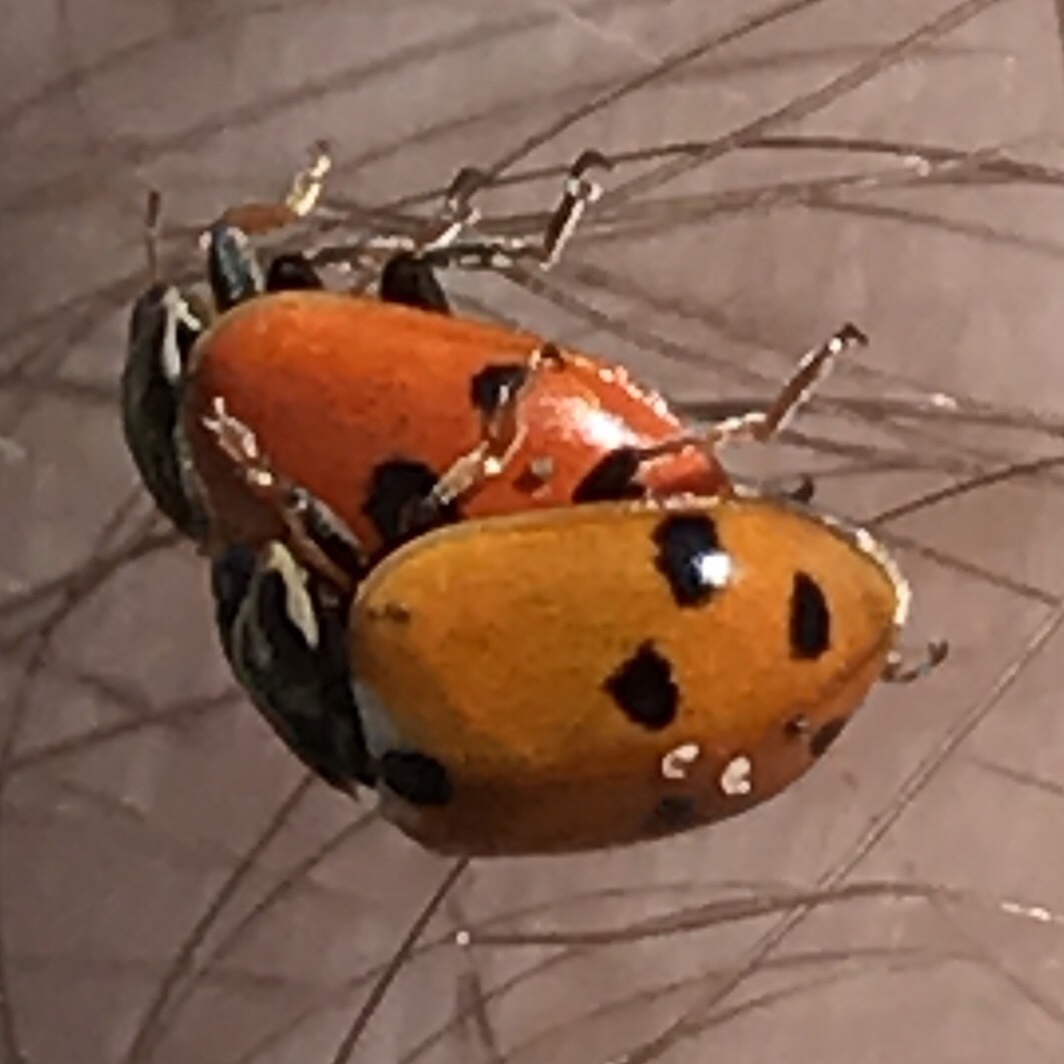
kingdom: Animalia
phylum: Arthropoda
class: Insecta
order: Coleoptera
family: Coccinellidae
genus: Hippodamia
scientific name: Hippodamia variegata
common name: Ladybird beetle
